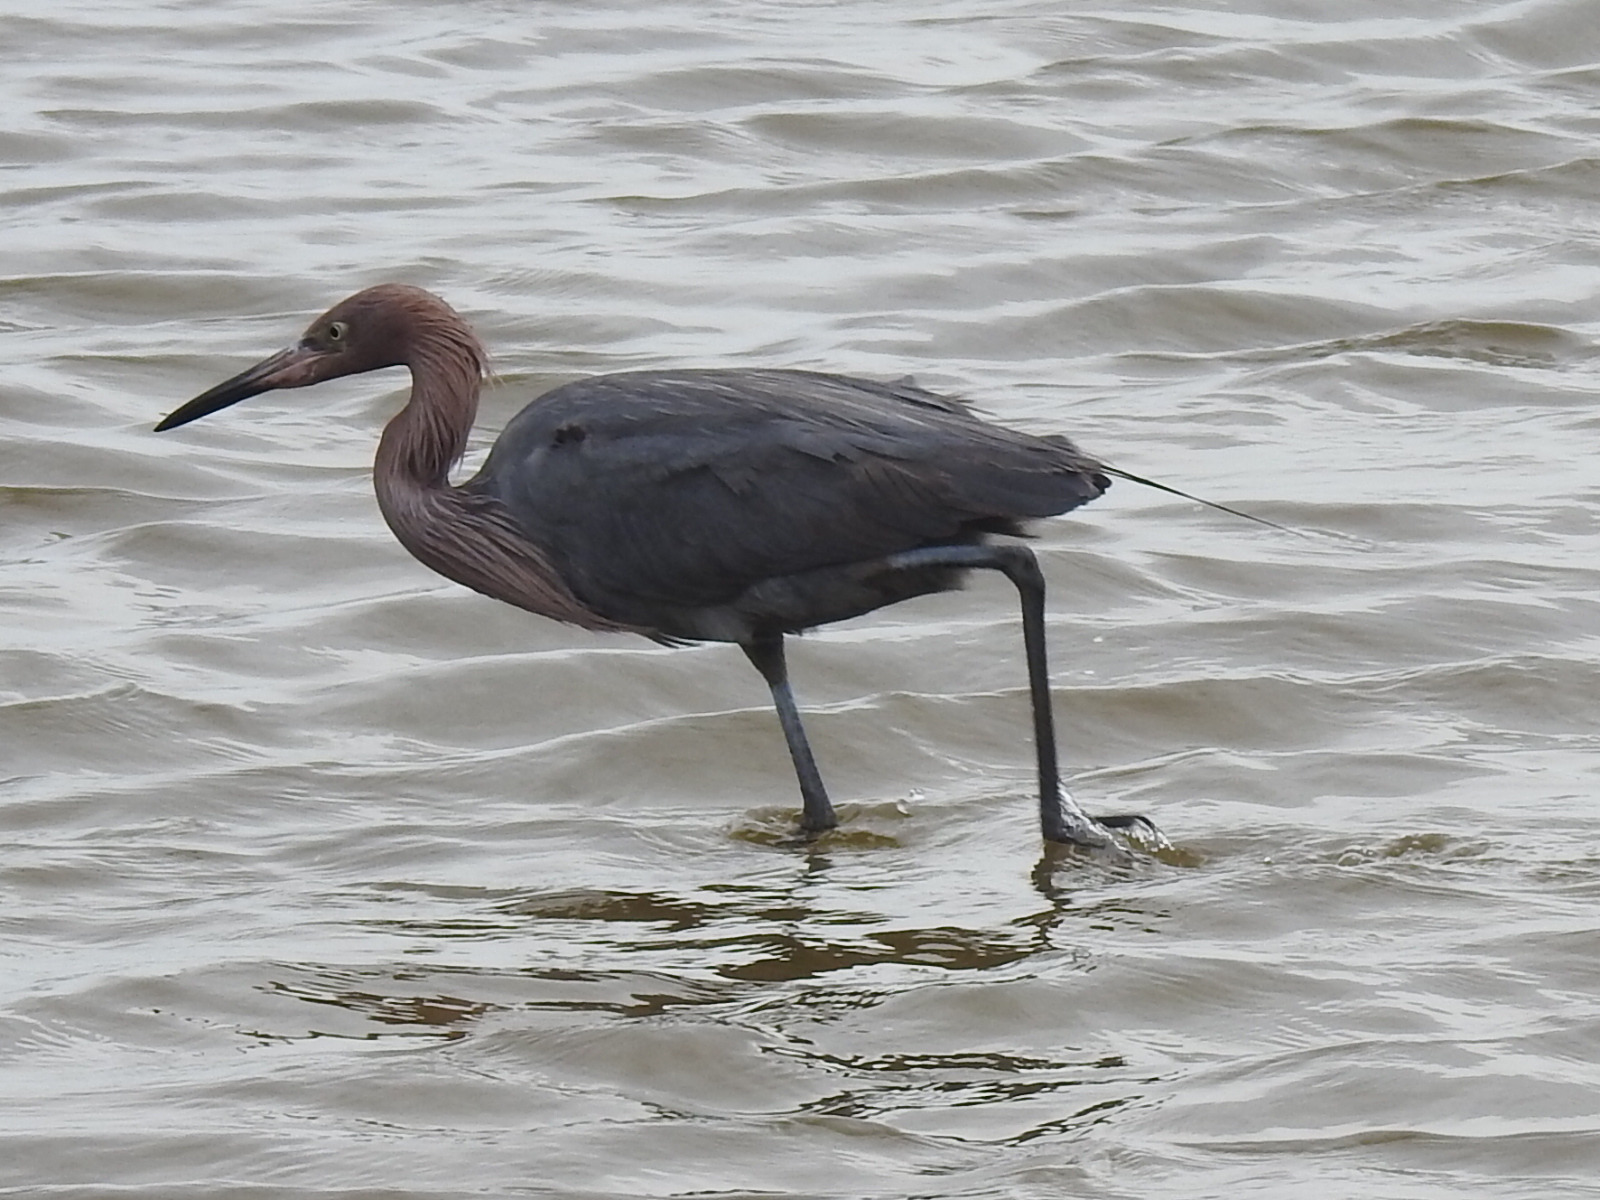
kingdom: Animalia
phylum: Chordata
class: Aves
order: Pelecaniformes
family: Ardeidae
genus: Egretta
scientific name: Egretta rufescens
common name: Reddish egret
